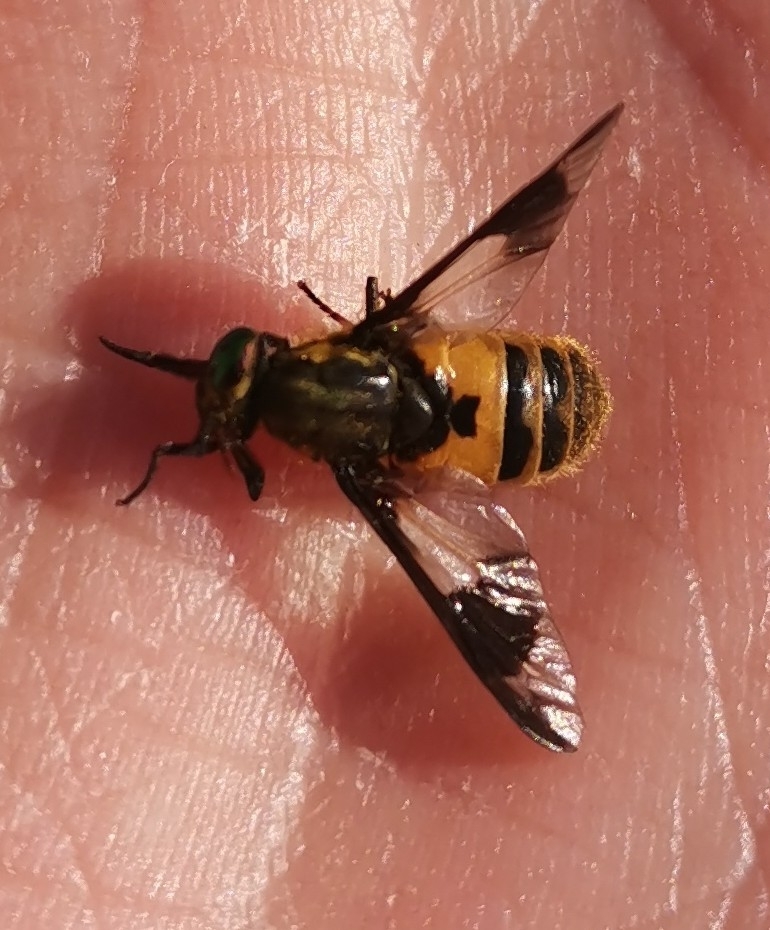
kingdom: Animalia
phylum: Arthropoda
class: Insecta
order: Diptera
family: Tabanidae
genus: Chrysops
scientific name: Chrysops viduatus
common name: Square-spot deerfly
